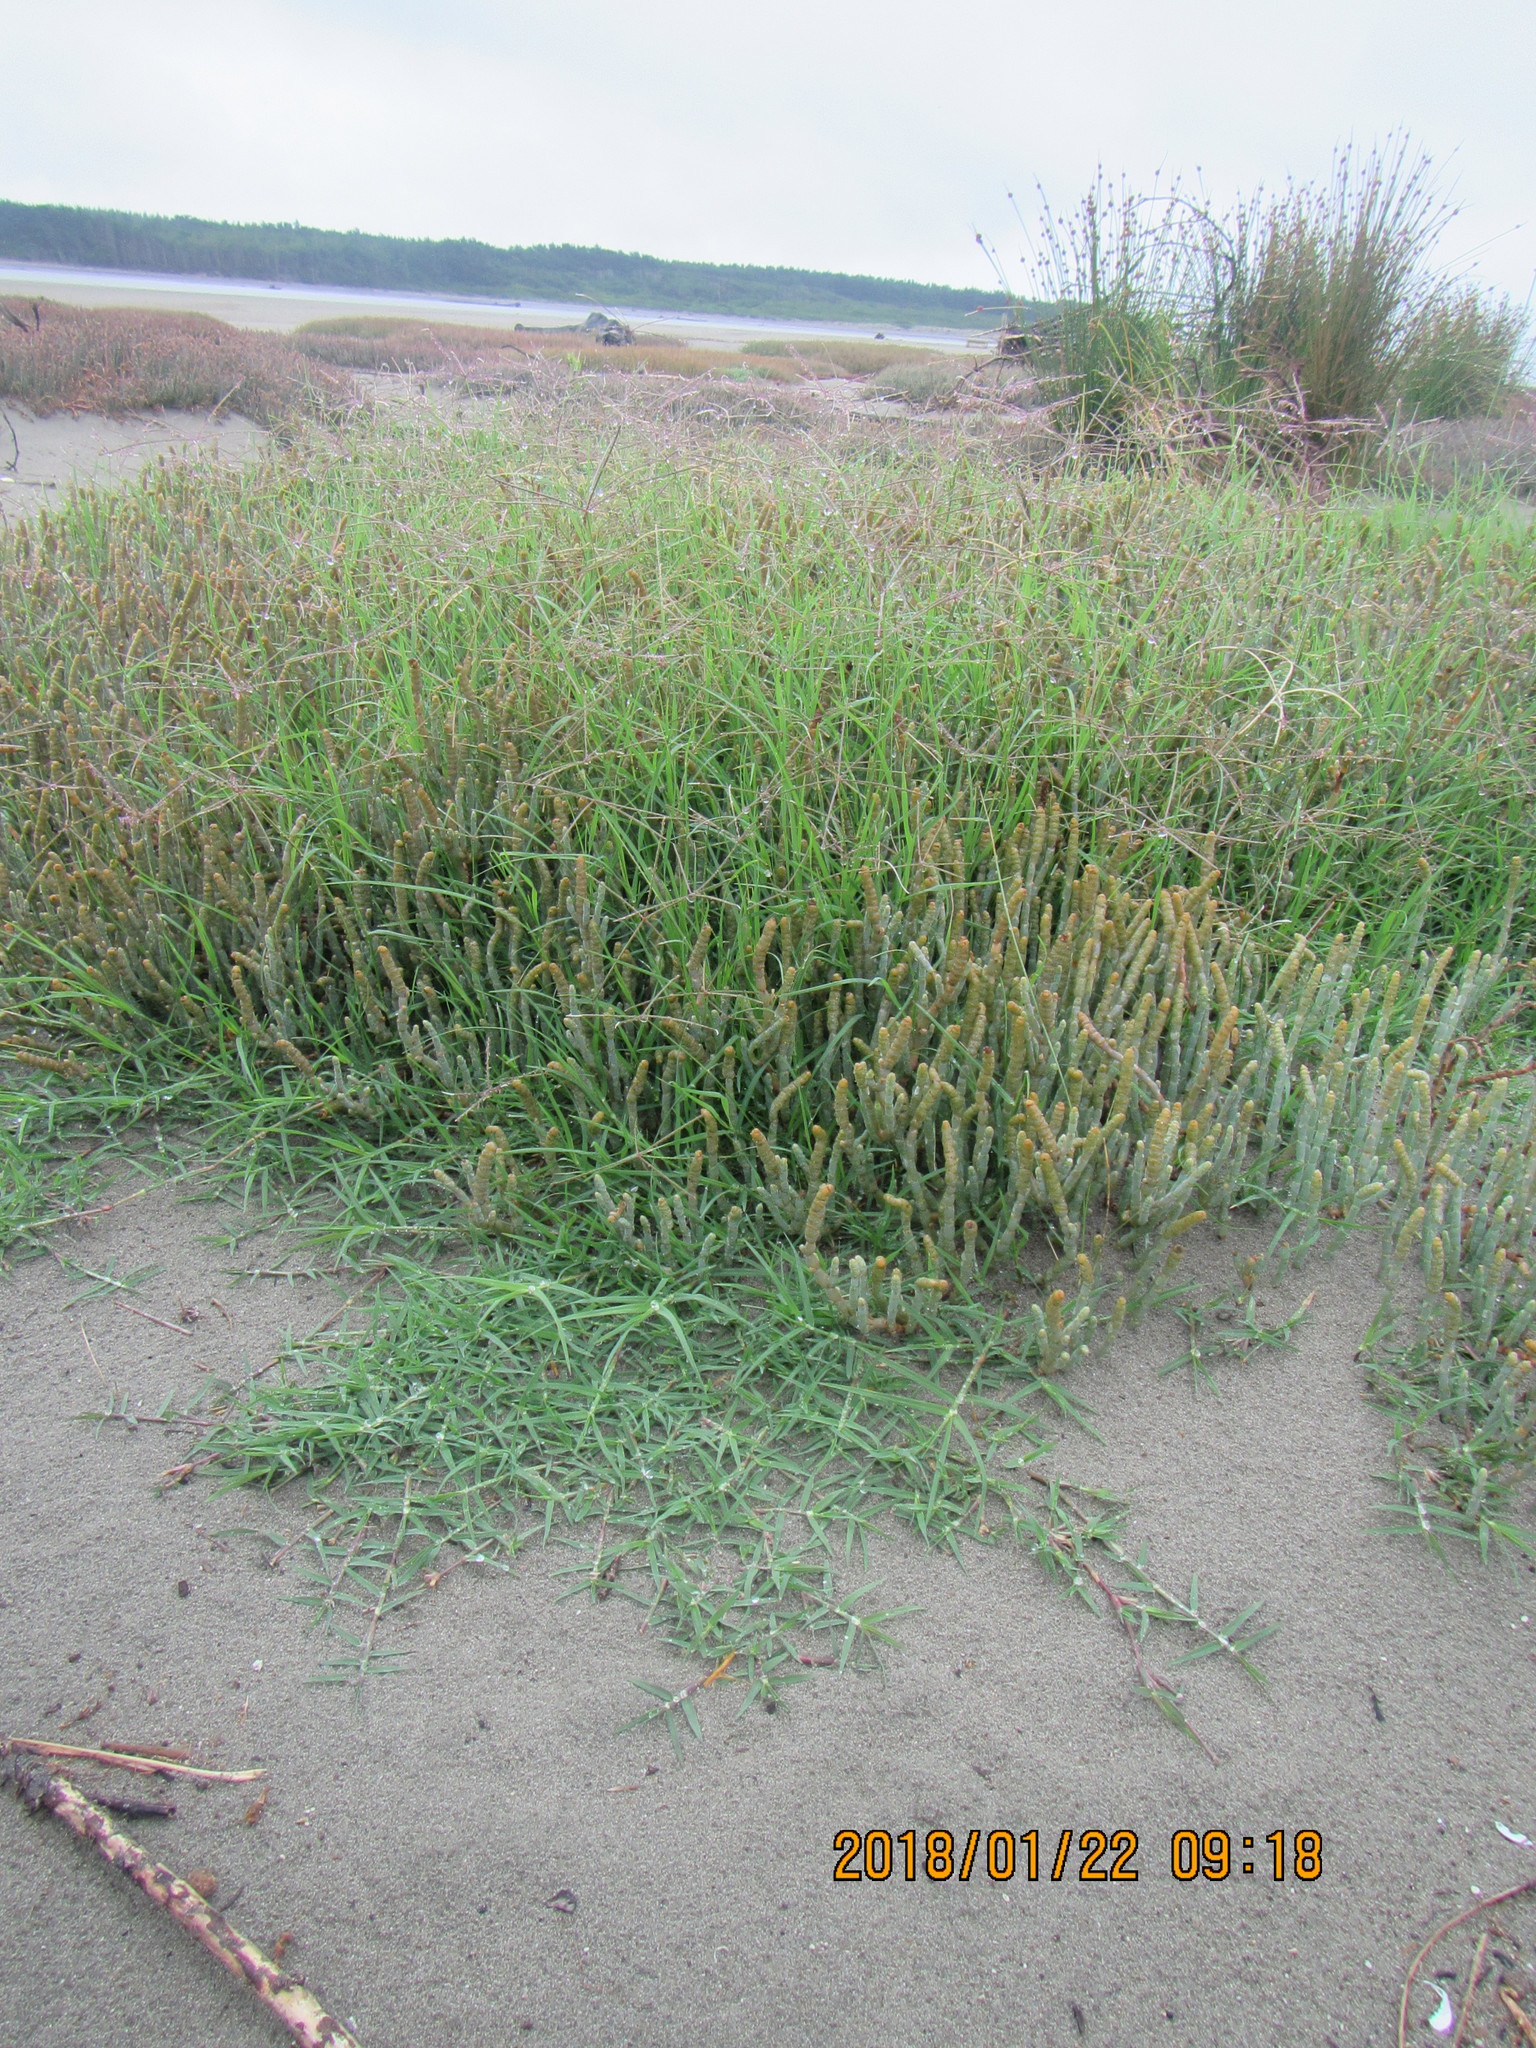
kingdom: Plantae
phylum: Tracheophyta
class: Liliopsida
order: Poales
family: Poaceae
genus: Cynodon
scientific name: Cynodon dactylon
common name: Bermuda grass
